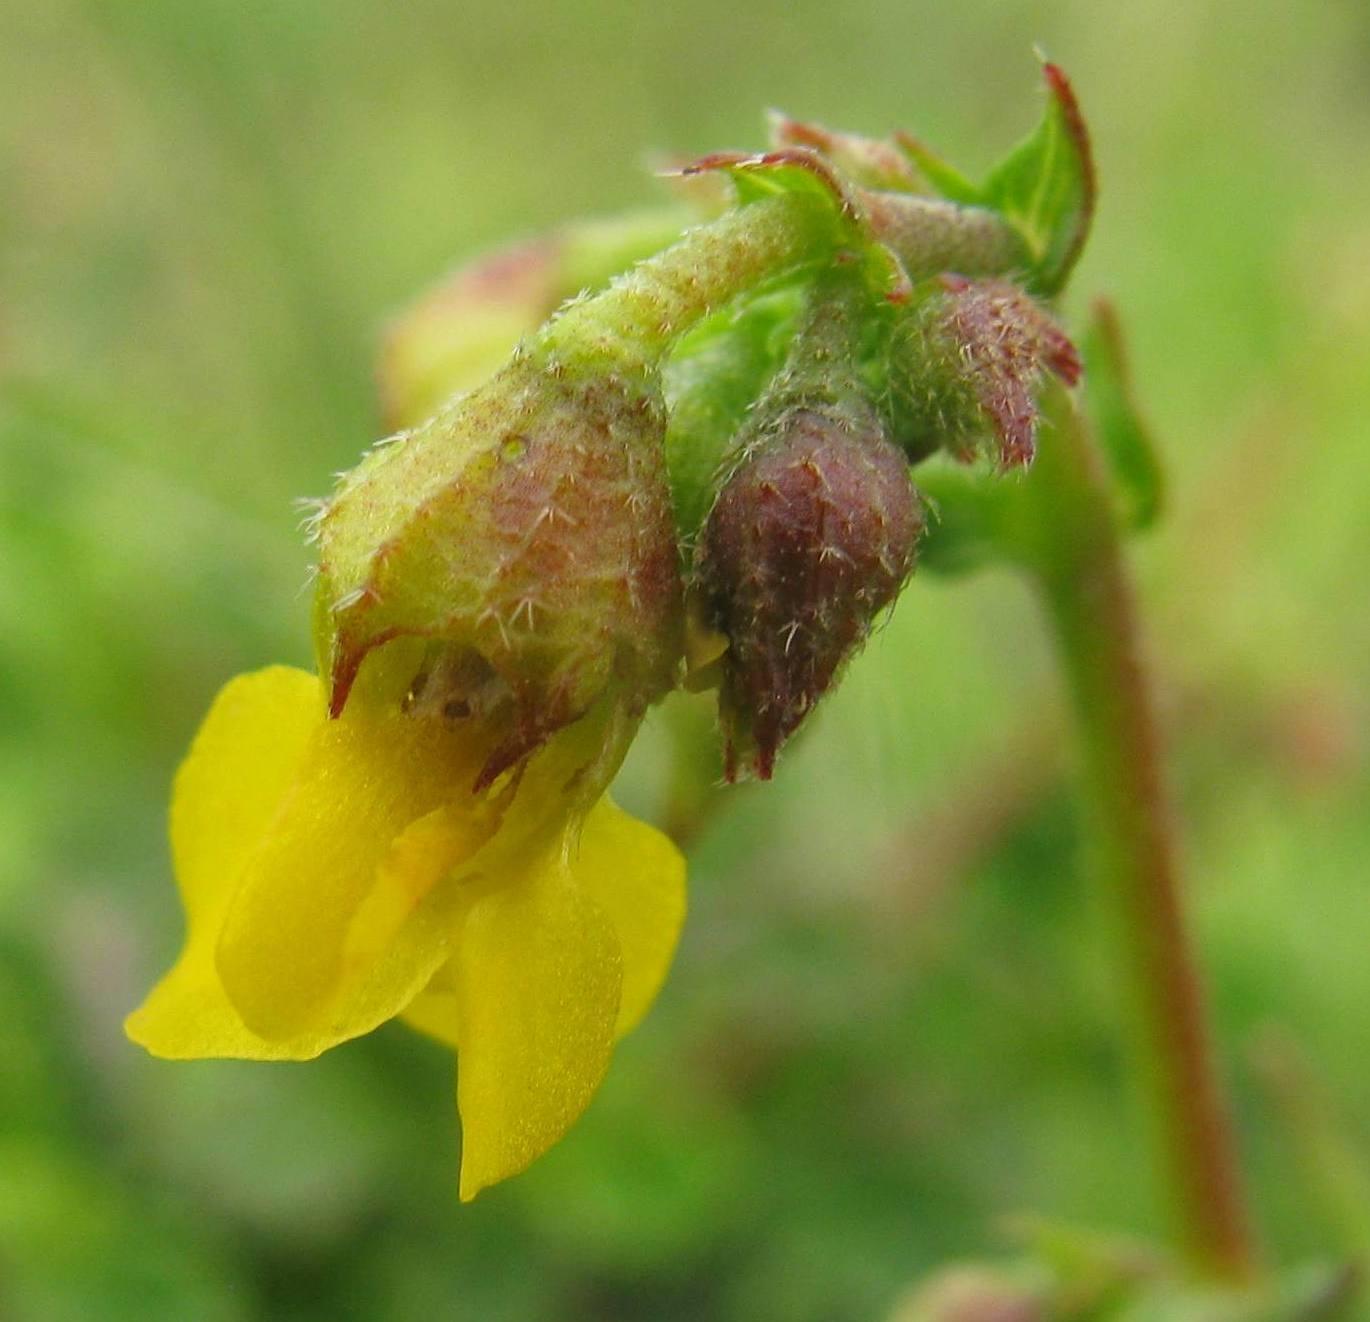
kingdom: Plantae
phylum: Tracheophyta
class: Magnoliopsida
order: Malvales
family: Malvaceae
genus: Hermannia
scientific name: Hermannia alnifolia
